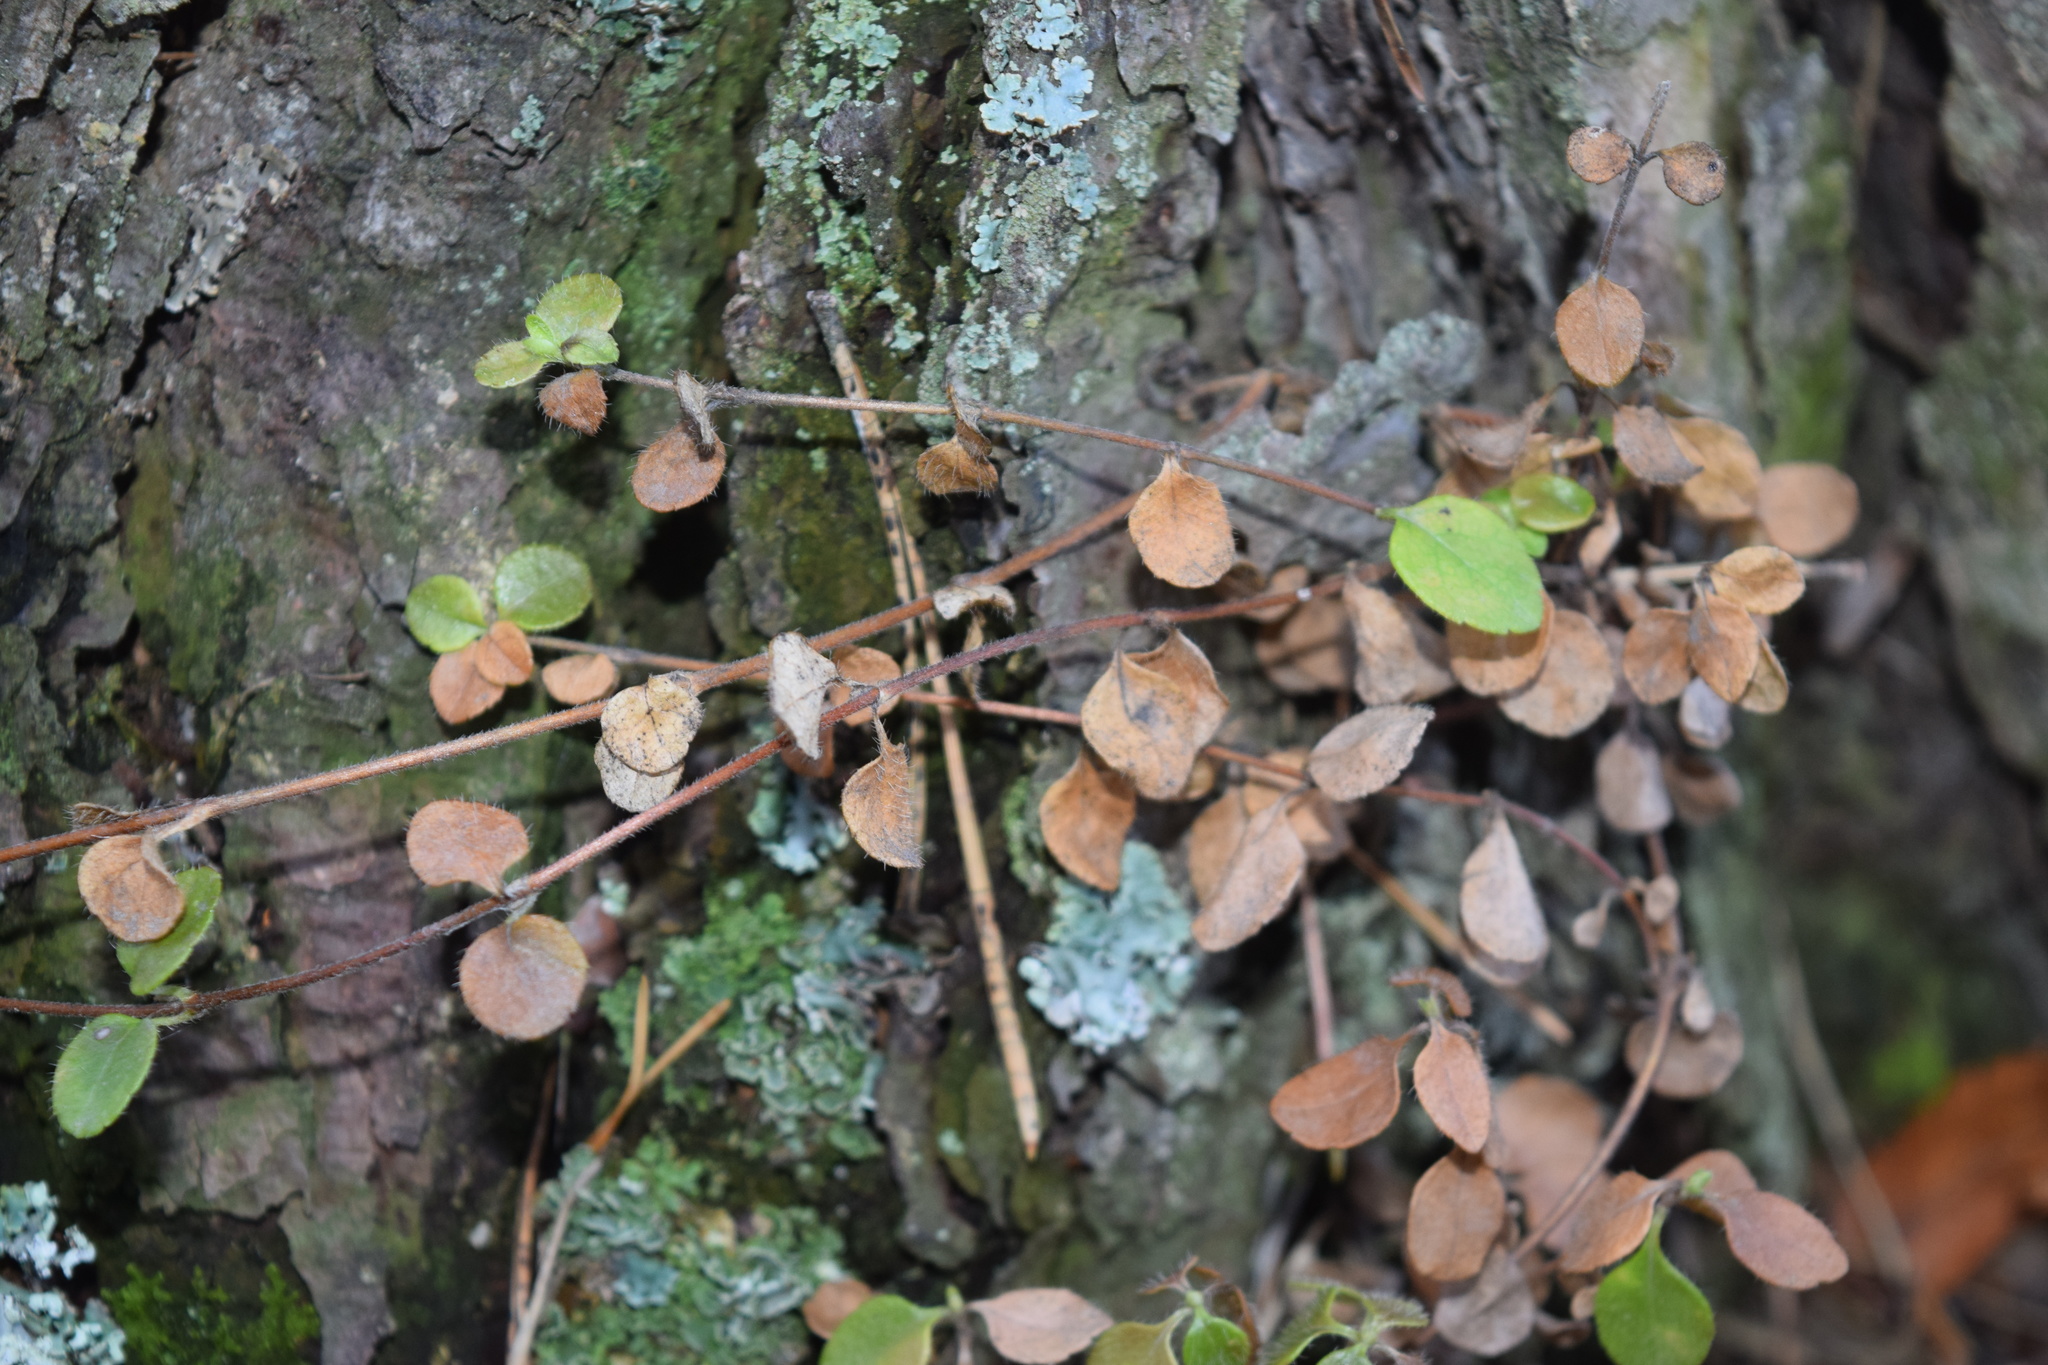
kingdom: Plantae
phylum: Tracheophyta
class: Magnoliopsida
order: Dipsacales
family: Caprifoliaceae
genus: Linnaea
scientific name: Linnaea borealis
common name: Twinflower
